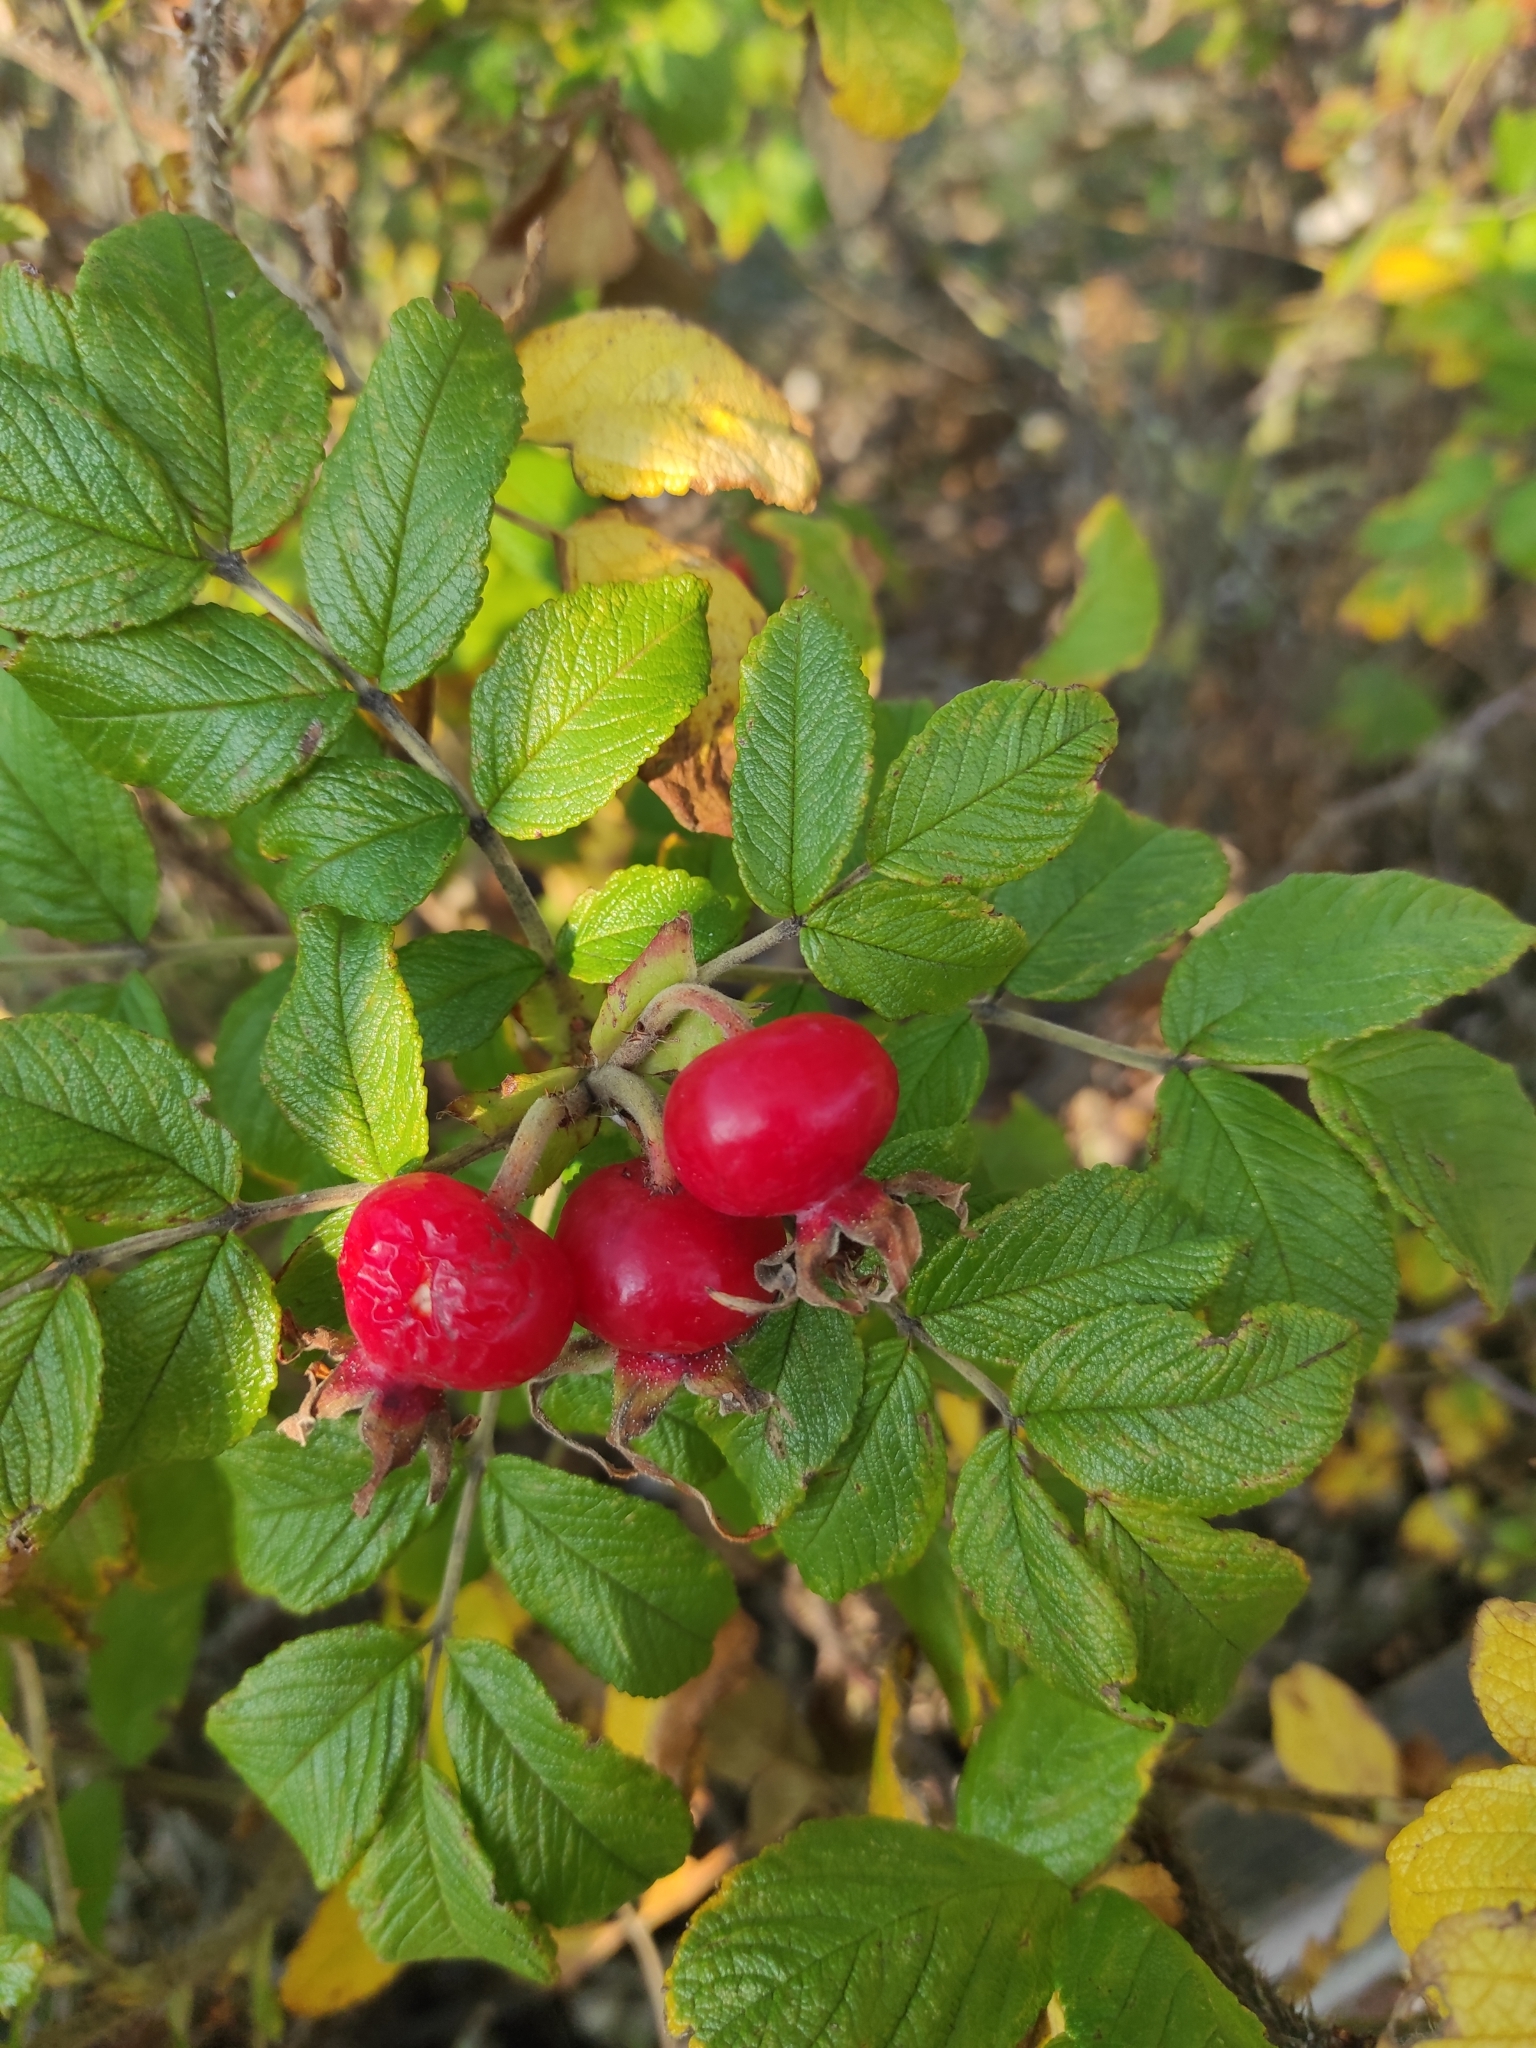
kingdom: Plantae
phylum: Tracheophyta
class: Magnoliopsida
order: Rosales
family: Rosaceae
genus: Rosa
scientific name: Rosa rugosa
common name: Japanese rose
